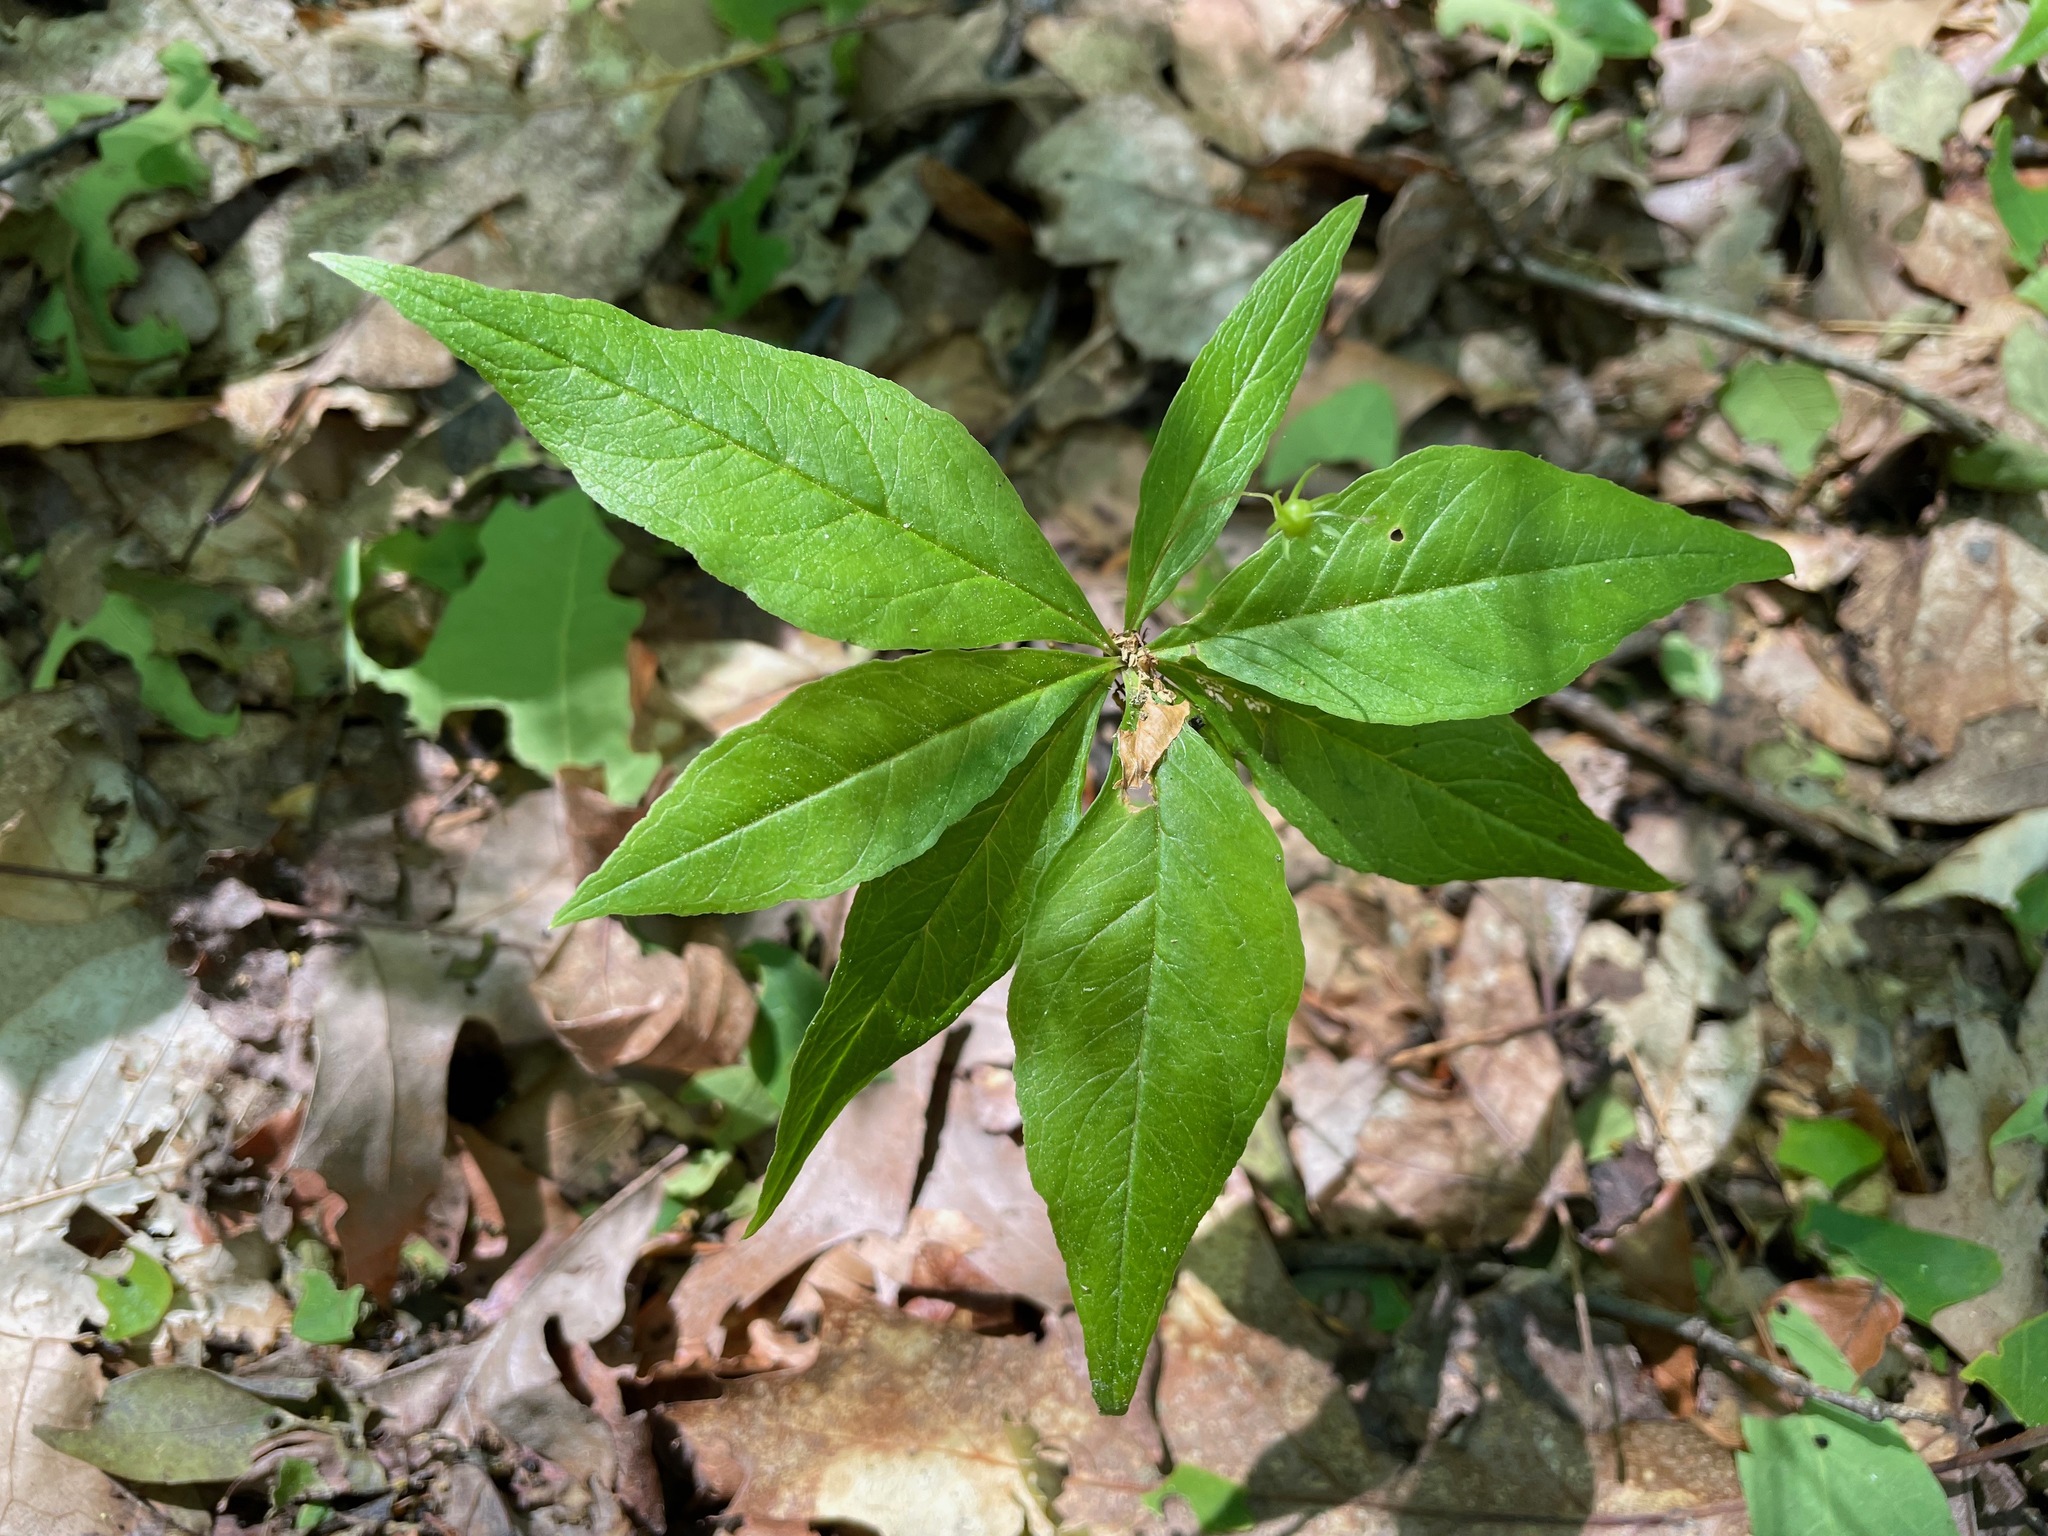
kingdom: Plantae
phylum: Tracheophyta
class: Magnoliopsida
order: Ericales
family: Primulaceae
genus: Lysimachia
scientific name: Lysimachia borealis
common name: American starflower
